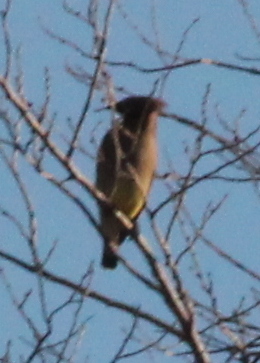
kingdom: Animalia
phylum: Chordata
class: Aves
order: Passeriformes
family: Bombycillidae
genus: Bombycilla
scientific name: Bombycilla cedrorum
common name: Cedar waxwing
